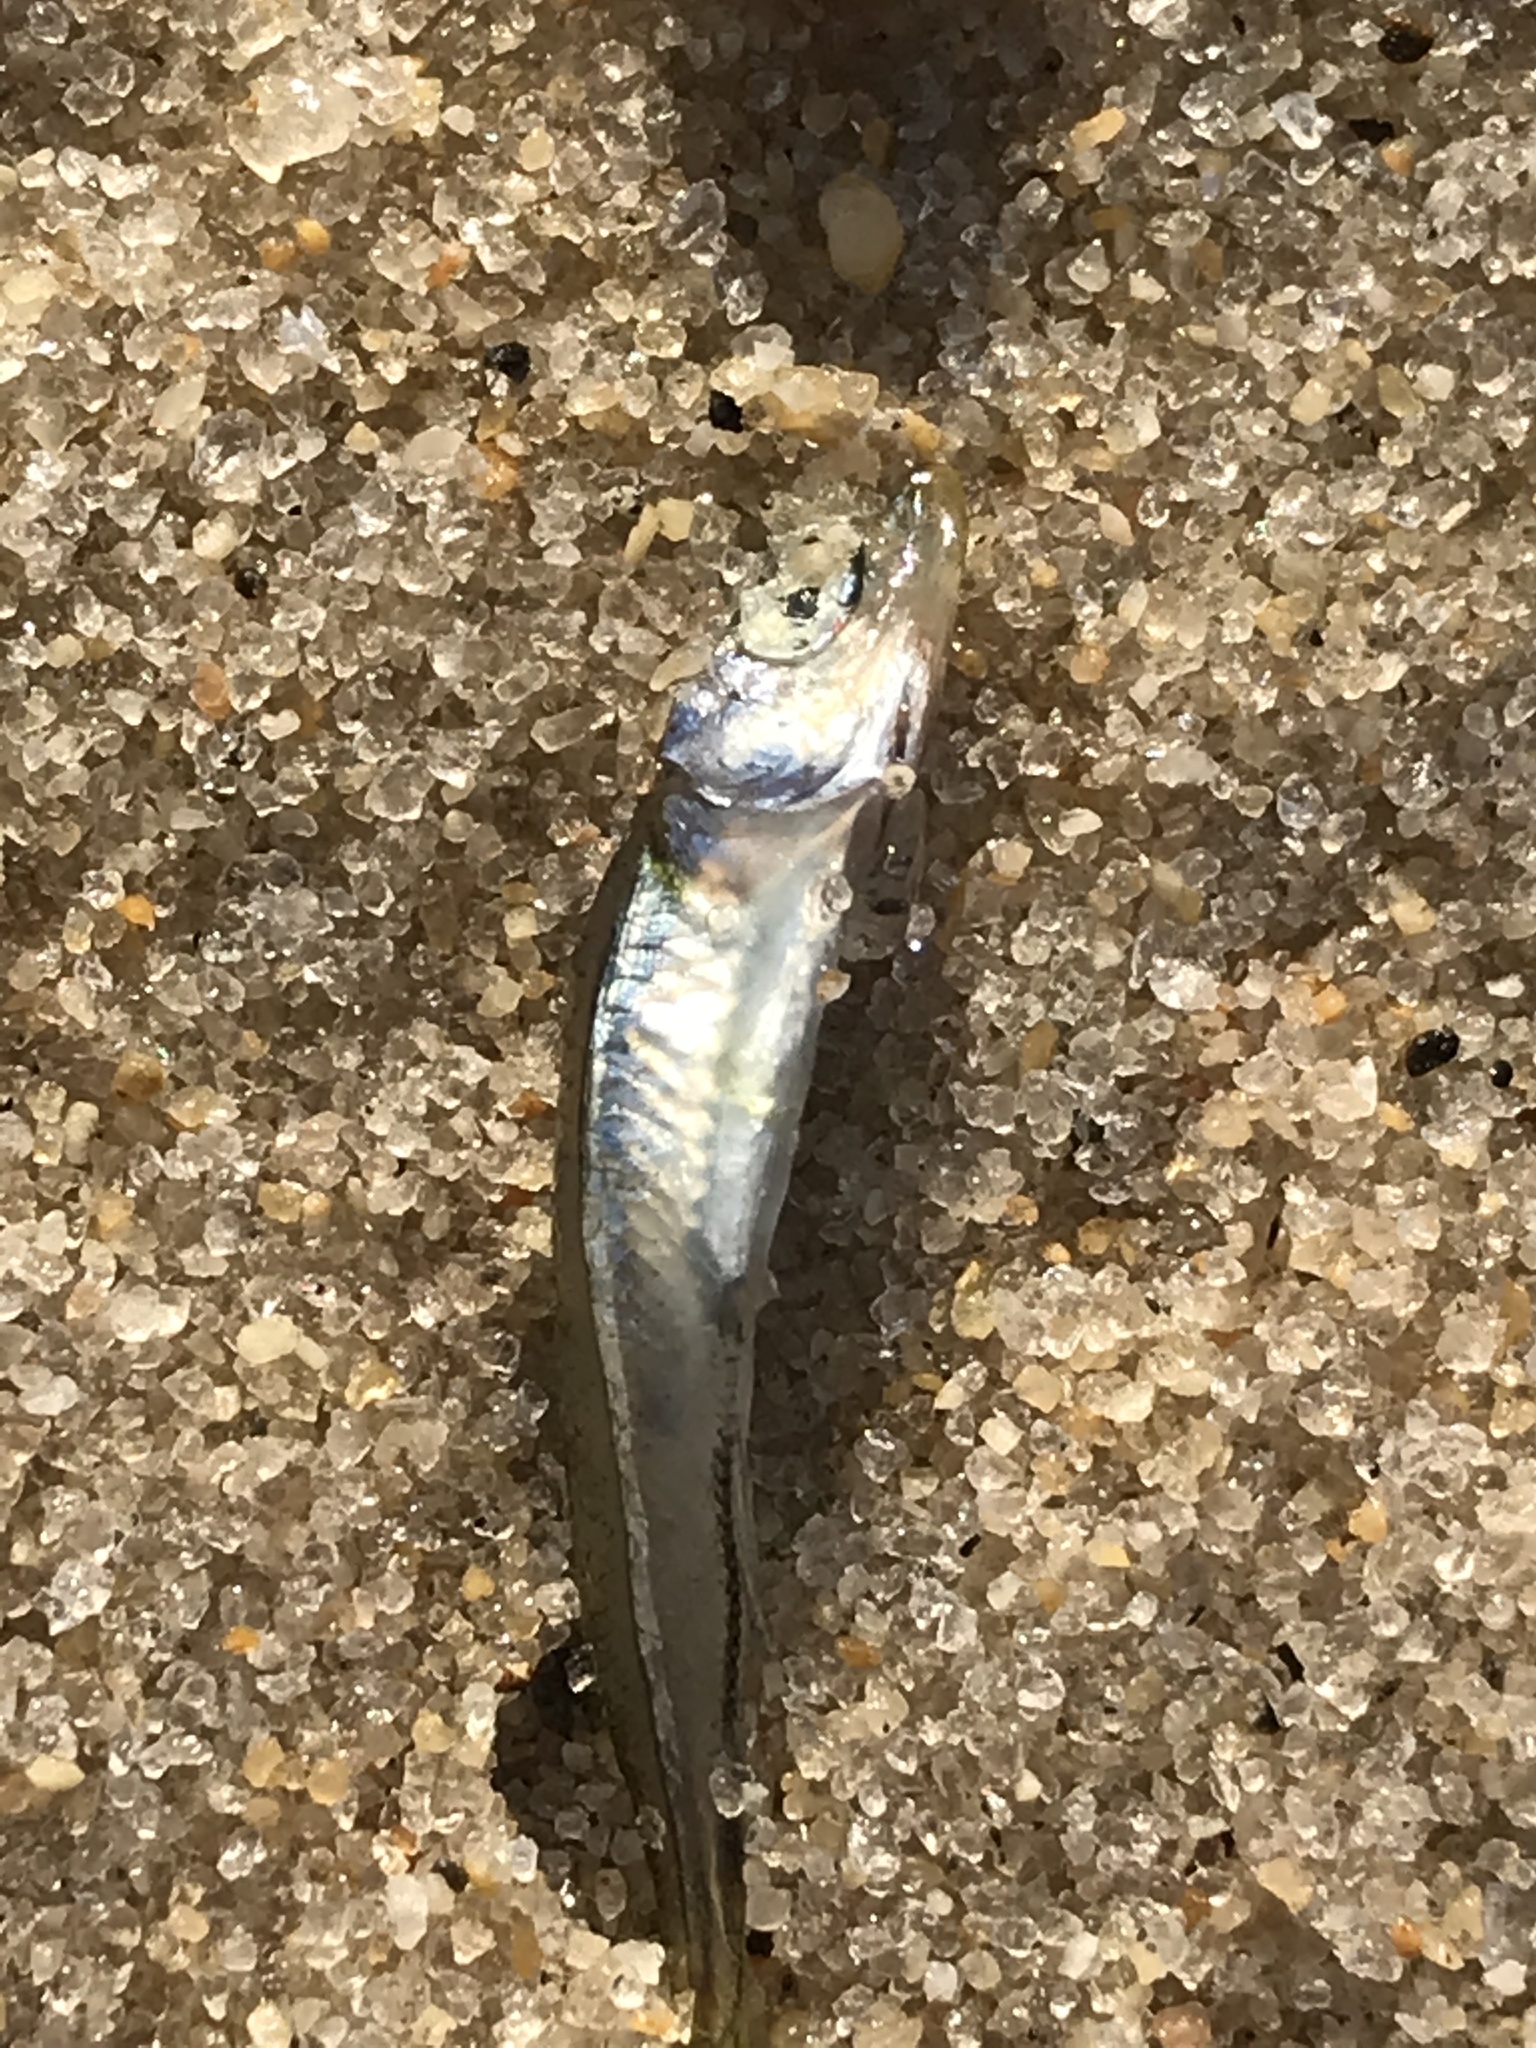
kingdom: Animalia
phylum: Chordata
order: Atheriniformes
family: Atherinopsidae
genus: Menidia
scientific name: Menidia menidia
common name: Atlantic silverside
